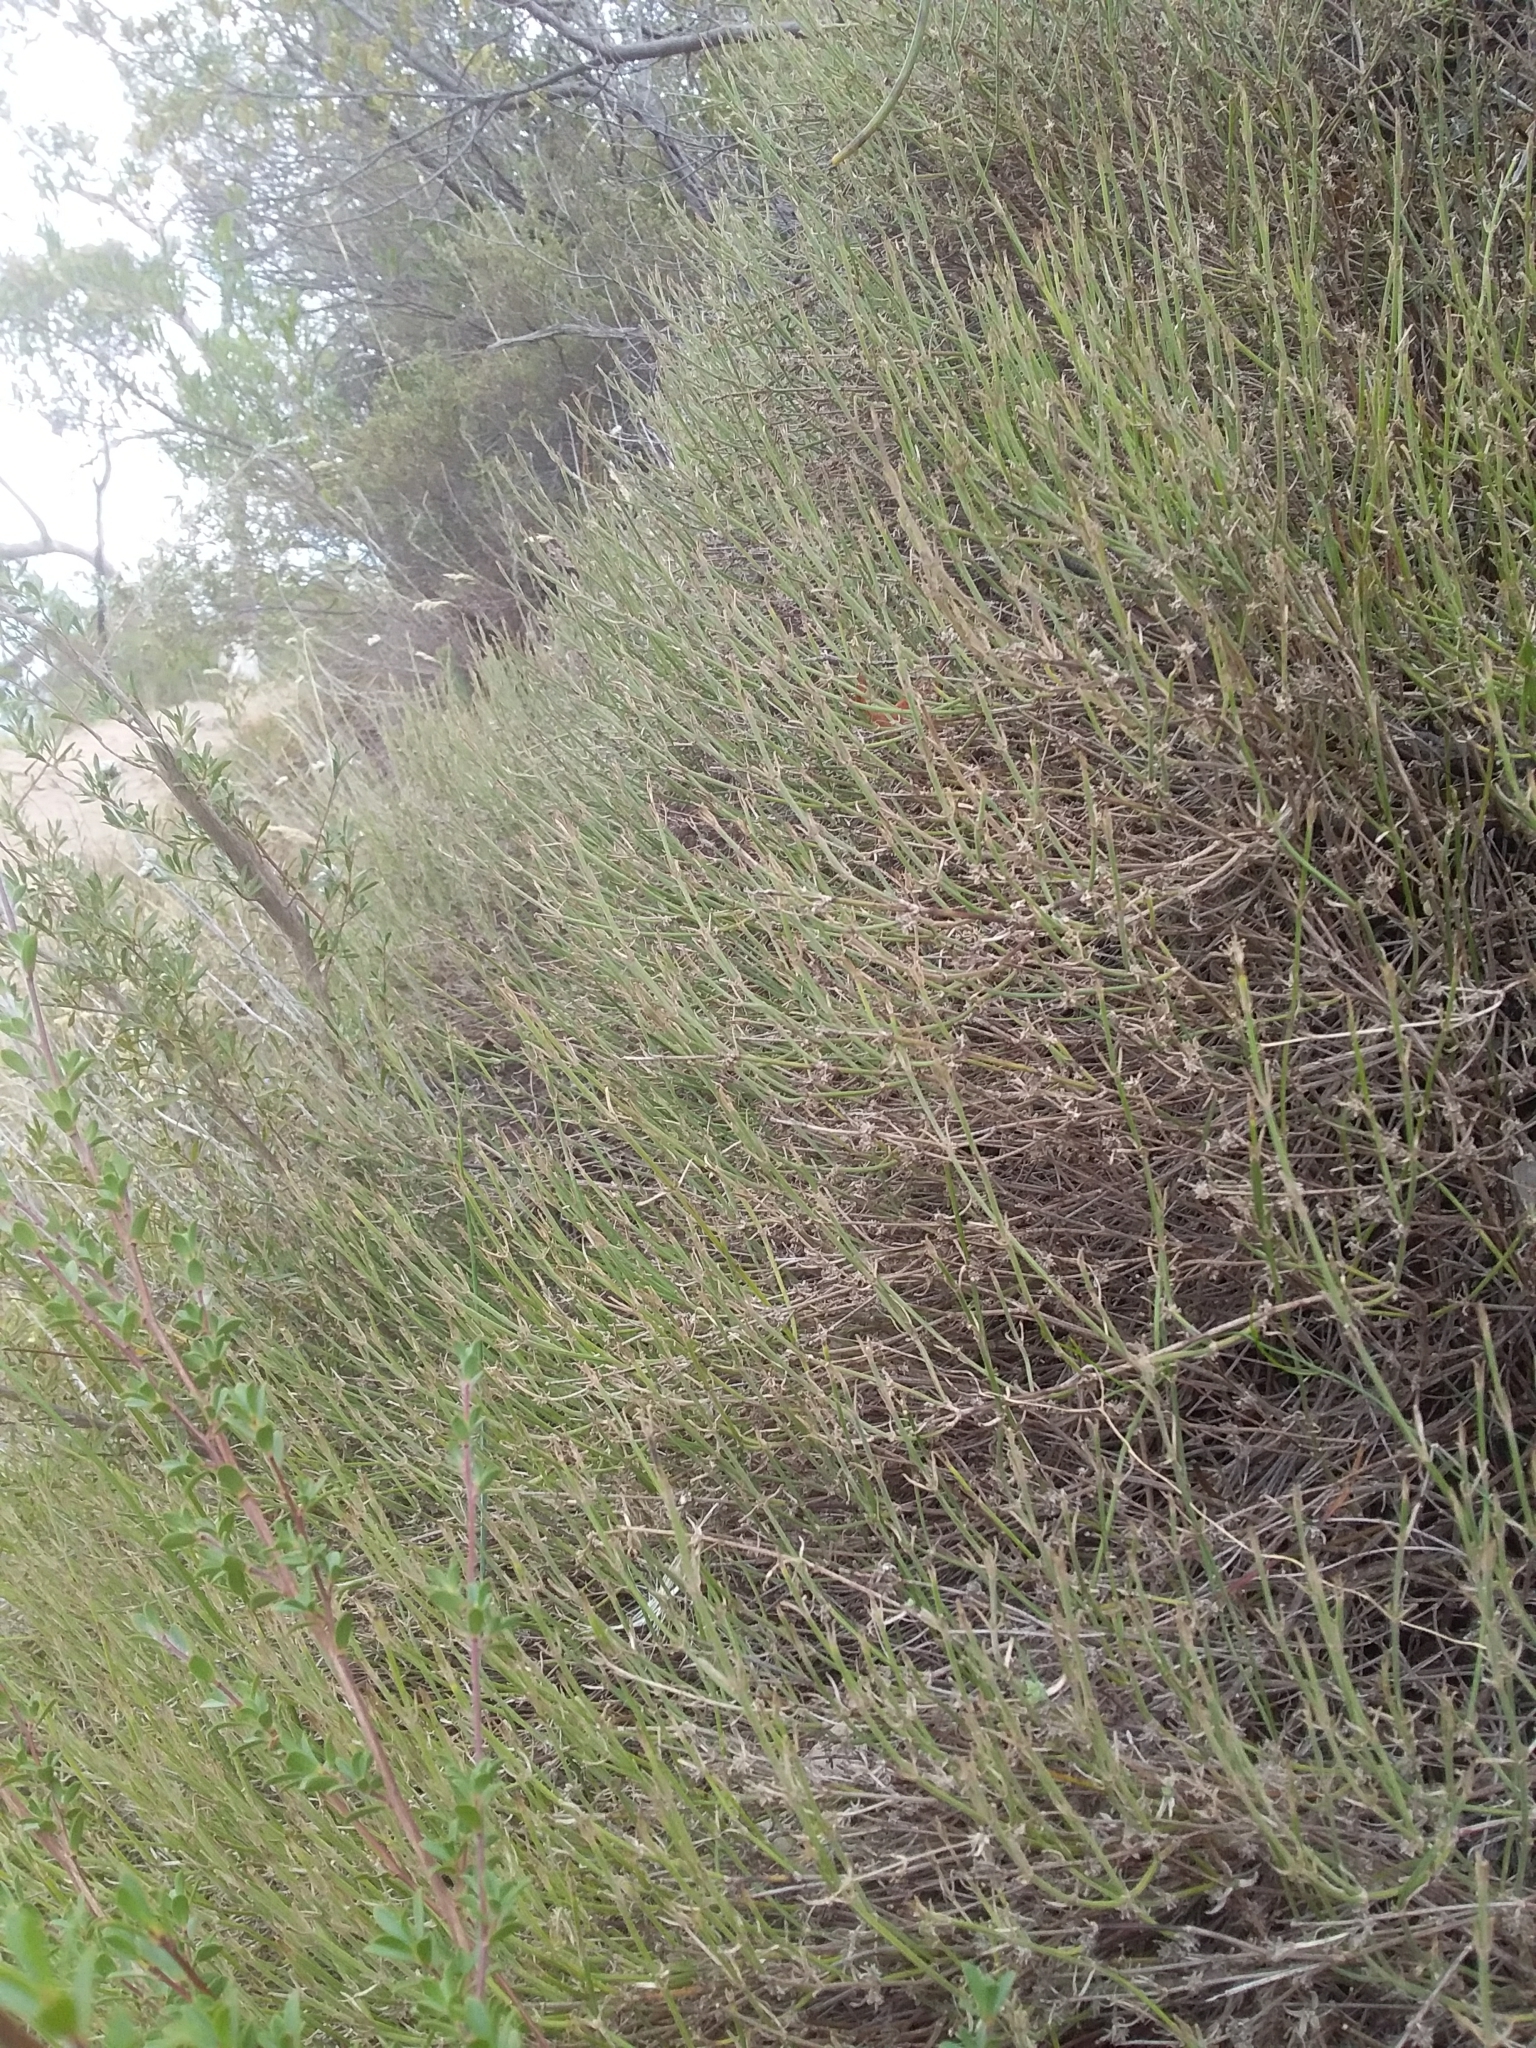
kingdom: Plantae
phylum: Tracheophyta
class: Magnoliopsida
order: Gentianales
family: Rubiaceae
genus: Opercularia
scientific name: Opercularia turpis
